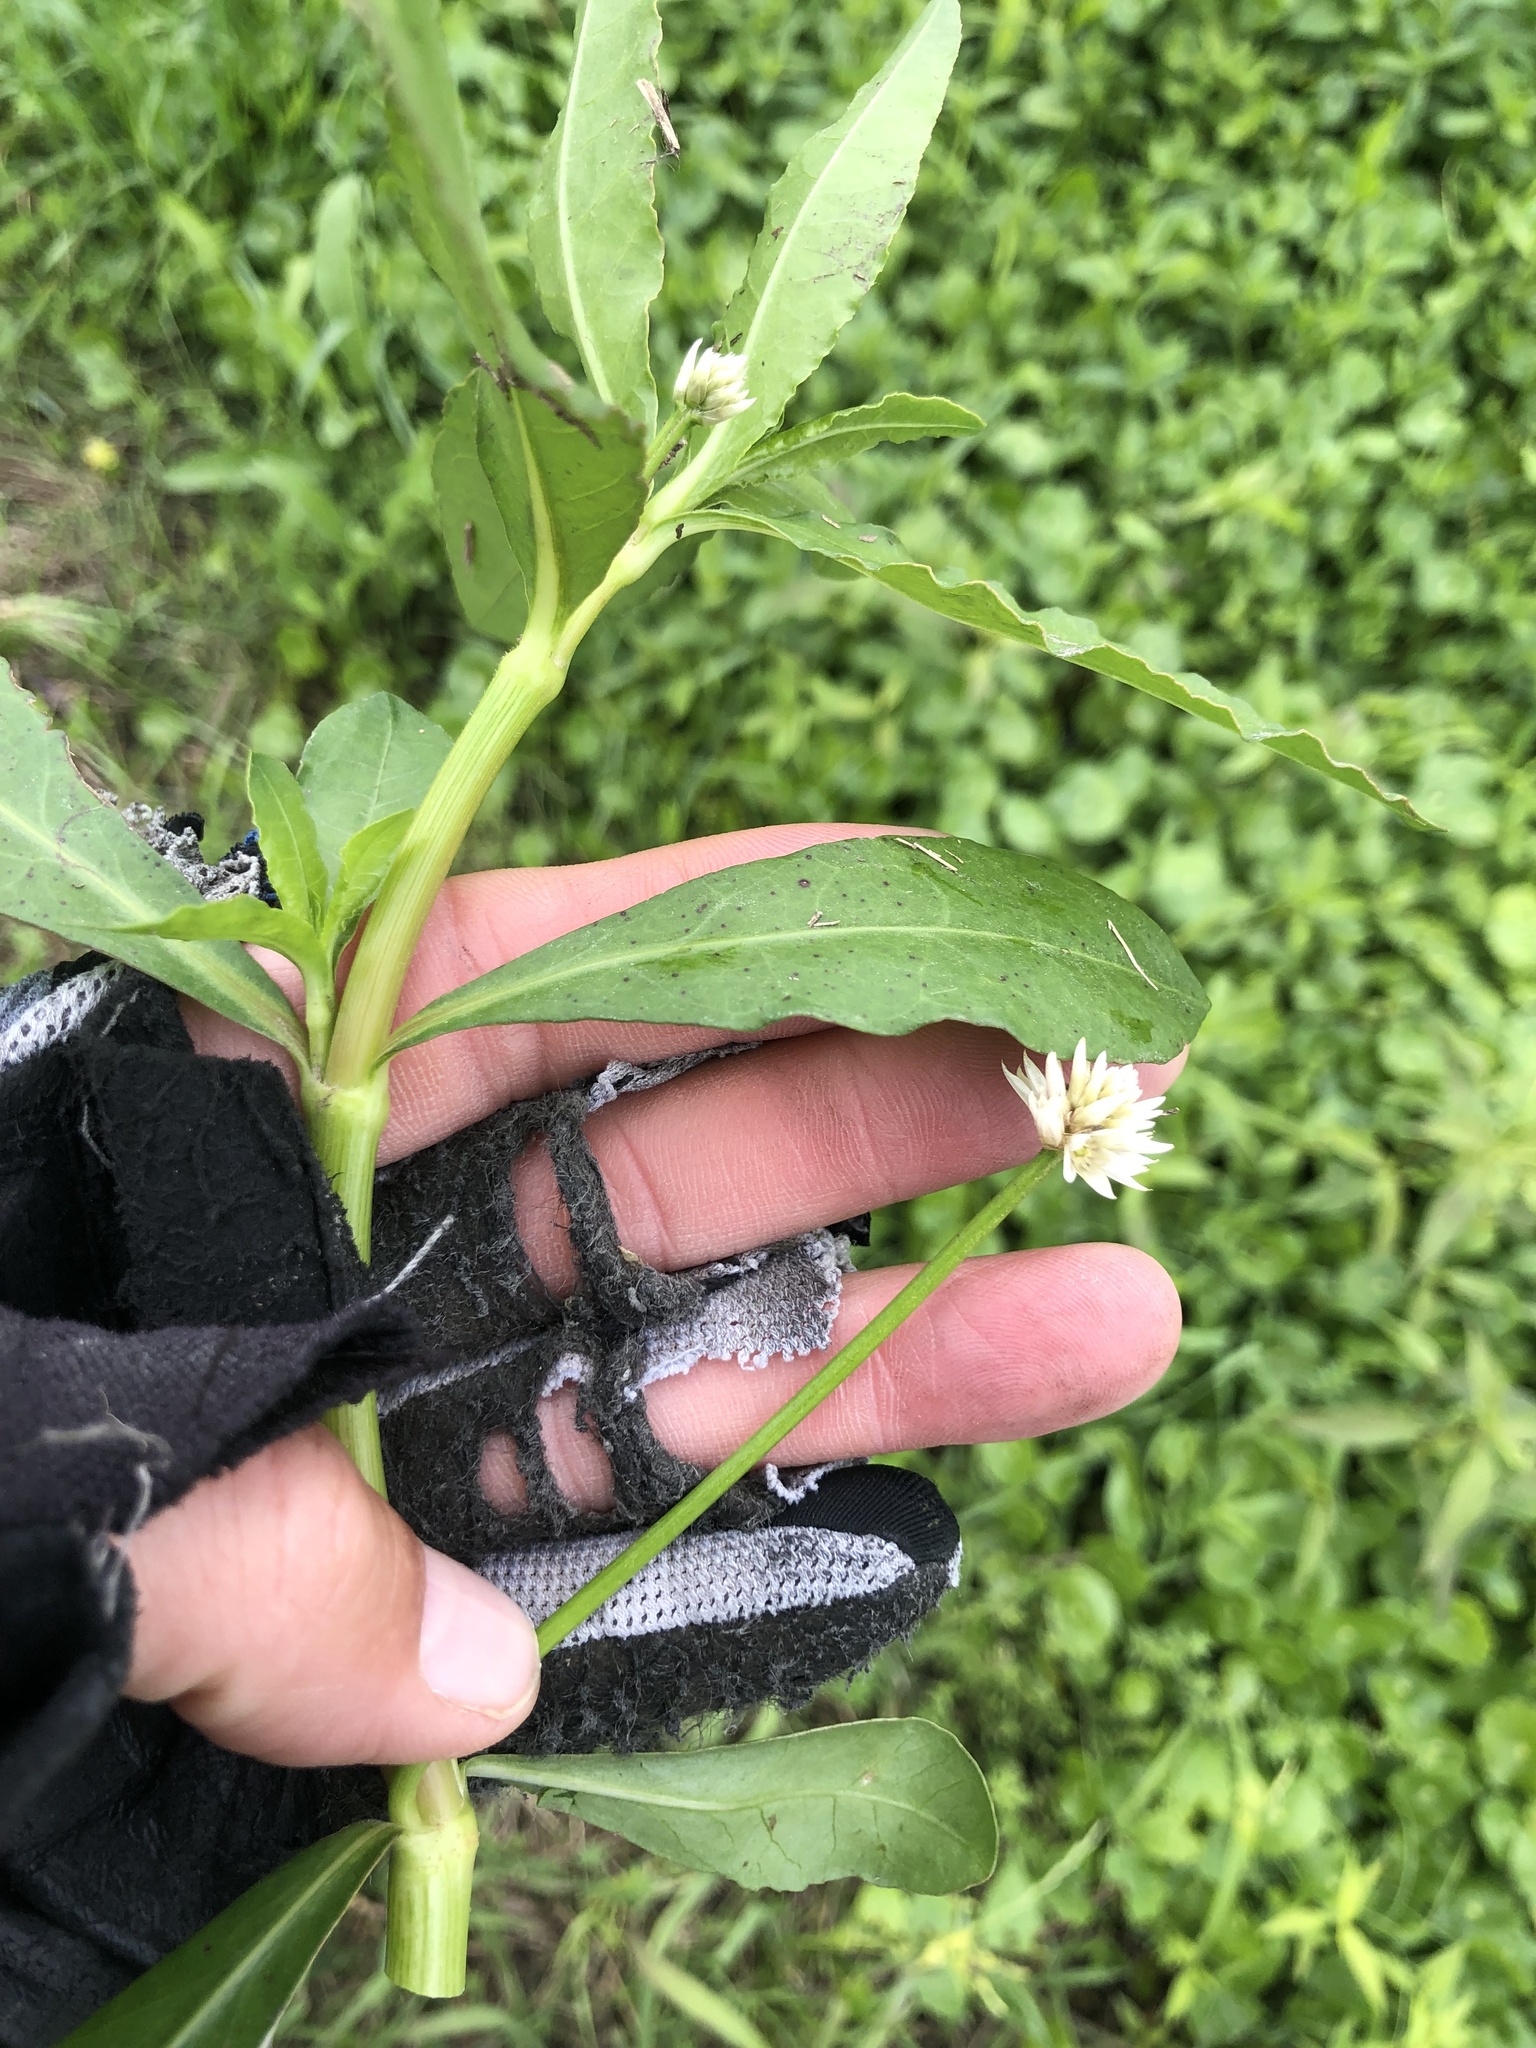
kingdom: Plantae
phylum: Tracheophyta
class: Magnoliopsida
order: Caryophyllales
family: Amaranthaceae
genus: Alternanthera
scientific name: Alternanthera philoxeroides
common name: Alligatorweed
